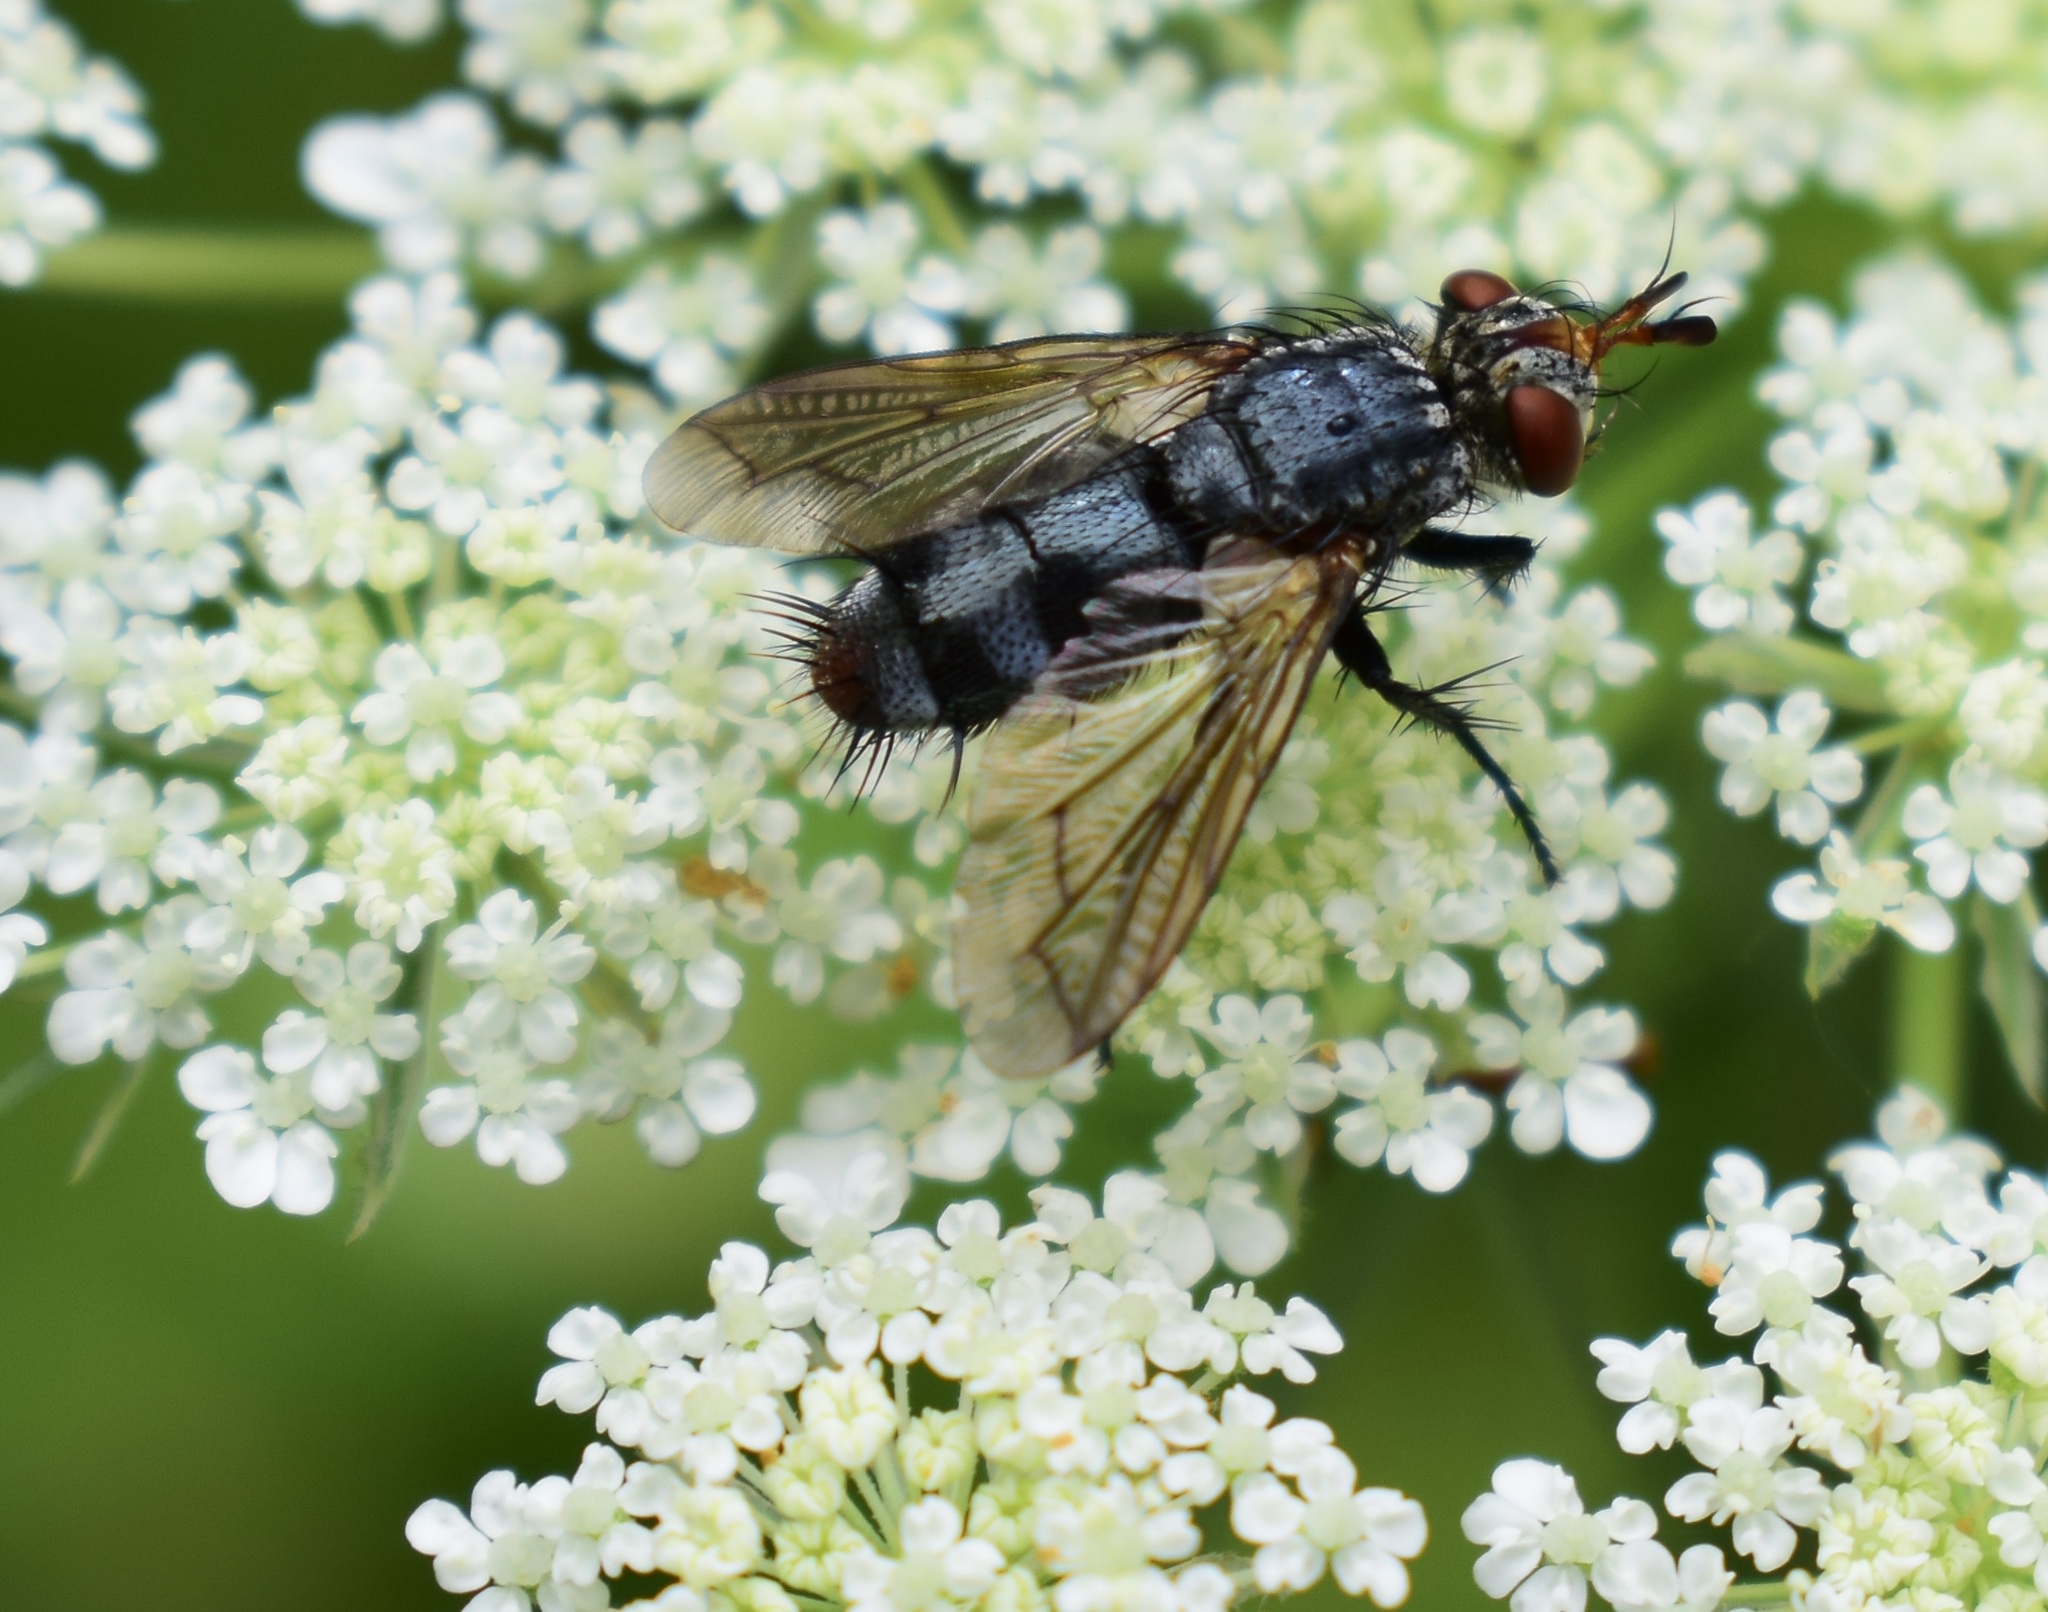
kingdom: Animalia
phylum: Arthropoda
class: Insecta
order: Diptera
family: Tachinidae
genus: Copecrypta
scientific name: Copecrypta ruficauda
